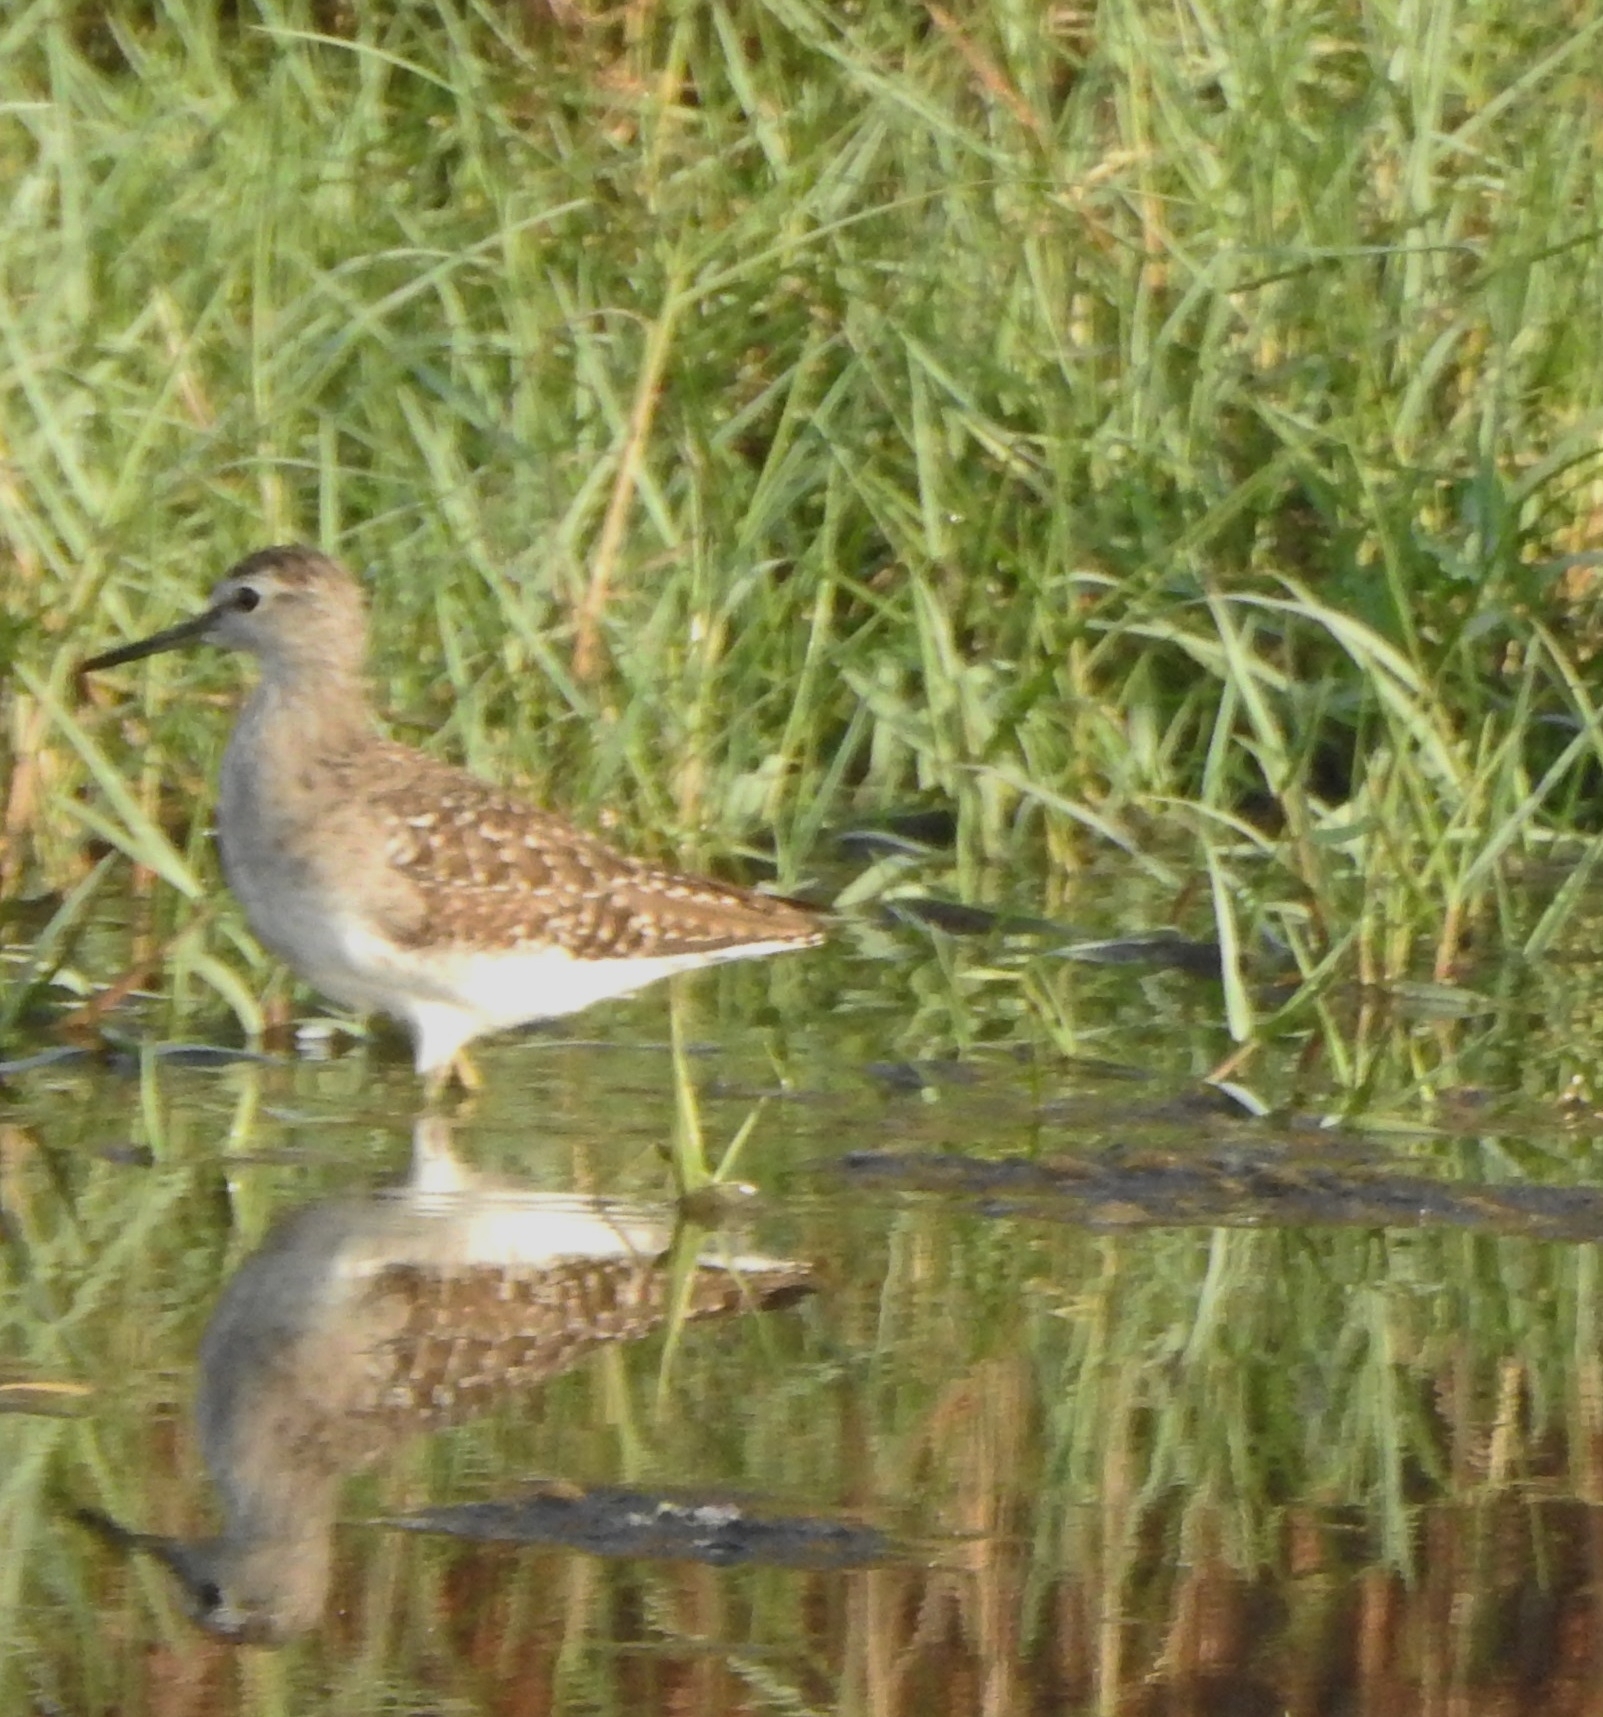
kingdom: Animalia
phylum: Chordata
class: Aves
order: Charadriiformes
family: Scolopacidae
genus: Tringa
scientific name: Tringa glareola
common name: Wood sandpiper
